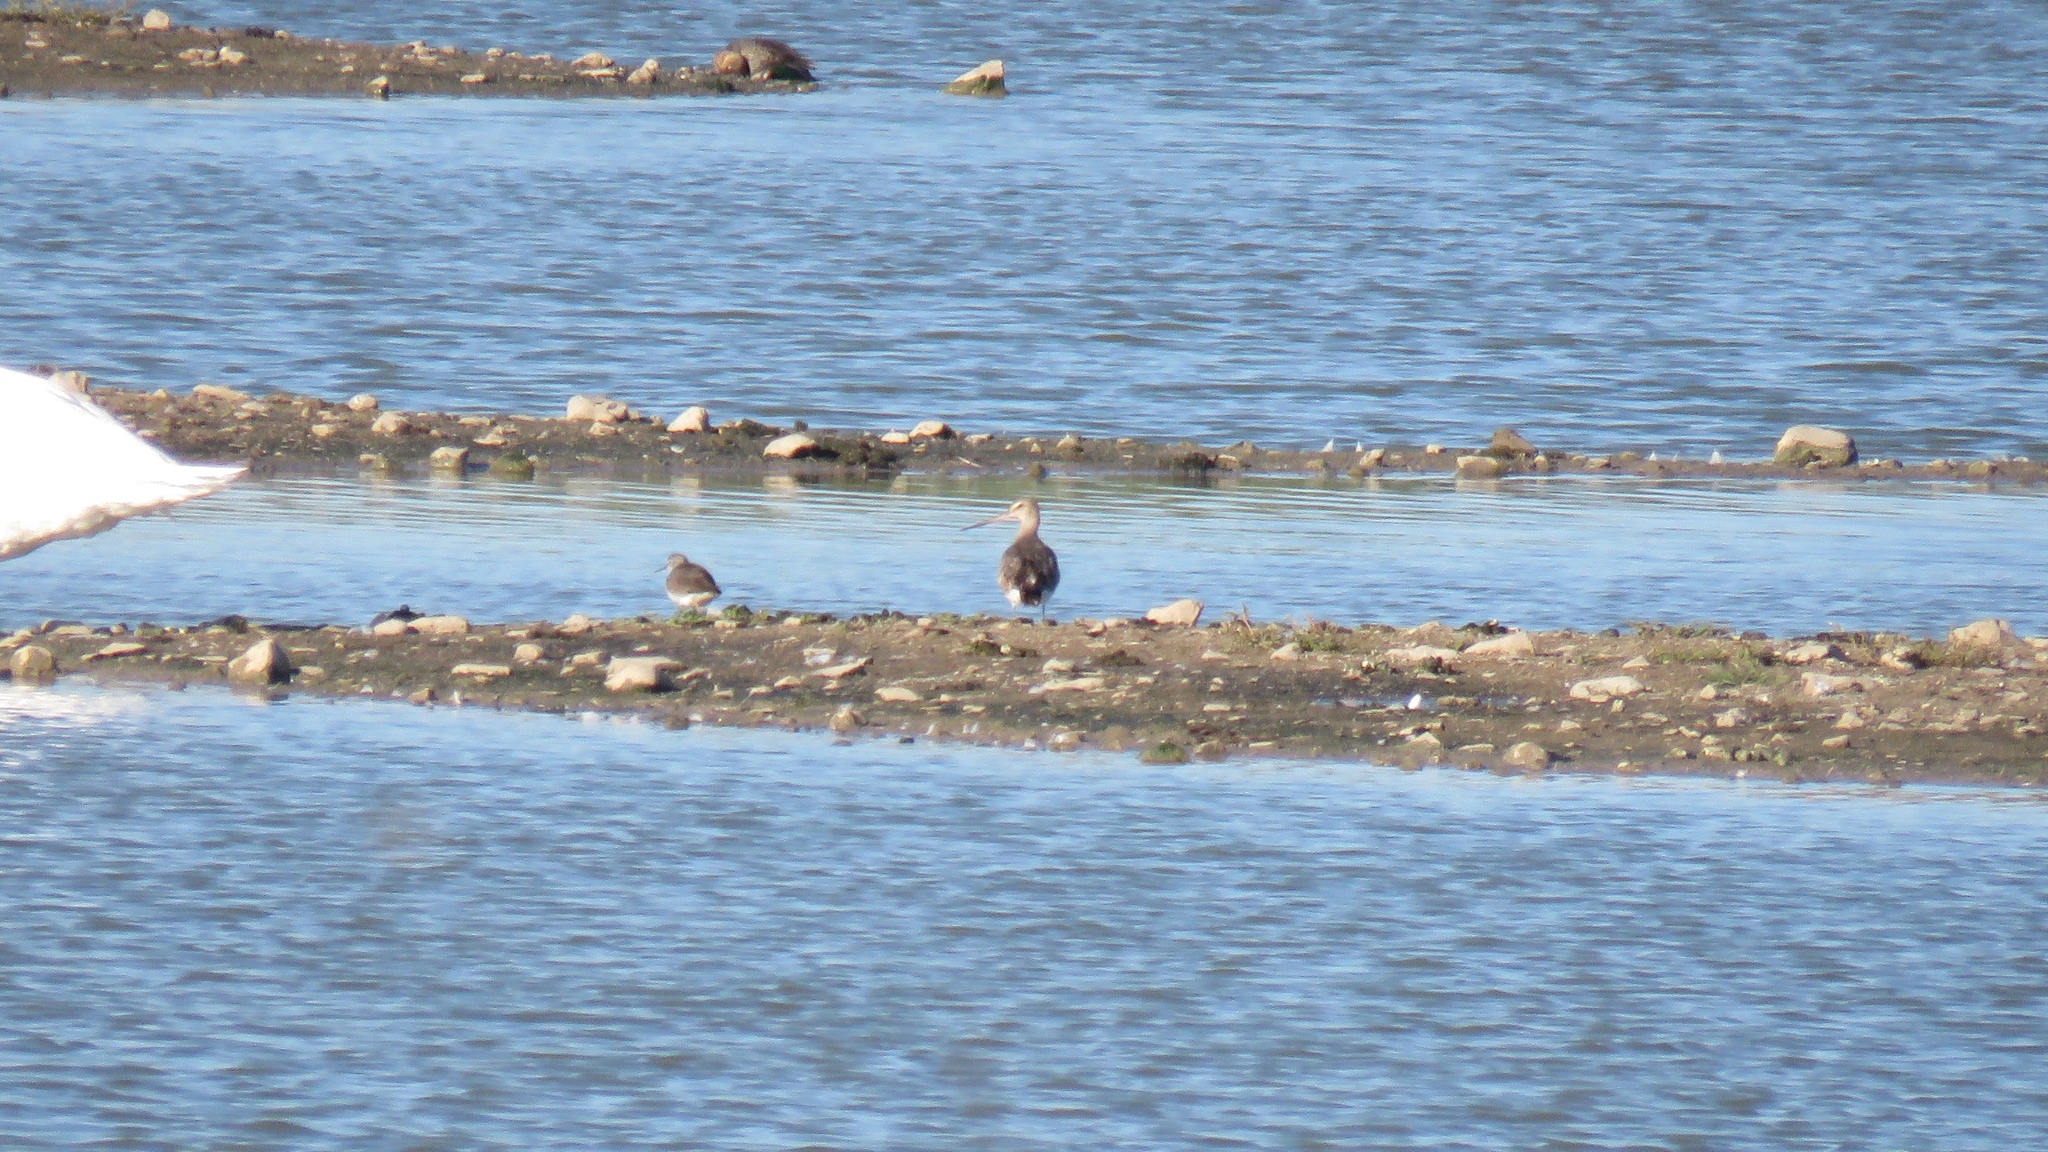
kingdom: Animalia
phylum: Chordata
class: Aves
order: Charadriiformes
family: Scolopacidae
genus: Limosa
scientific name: Limosa haemastica
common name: Hudsonian godwit
